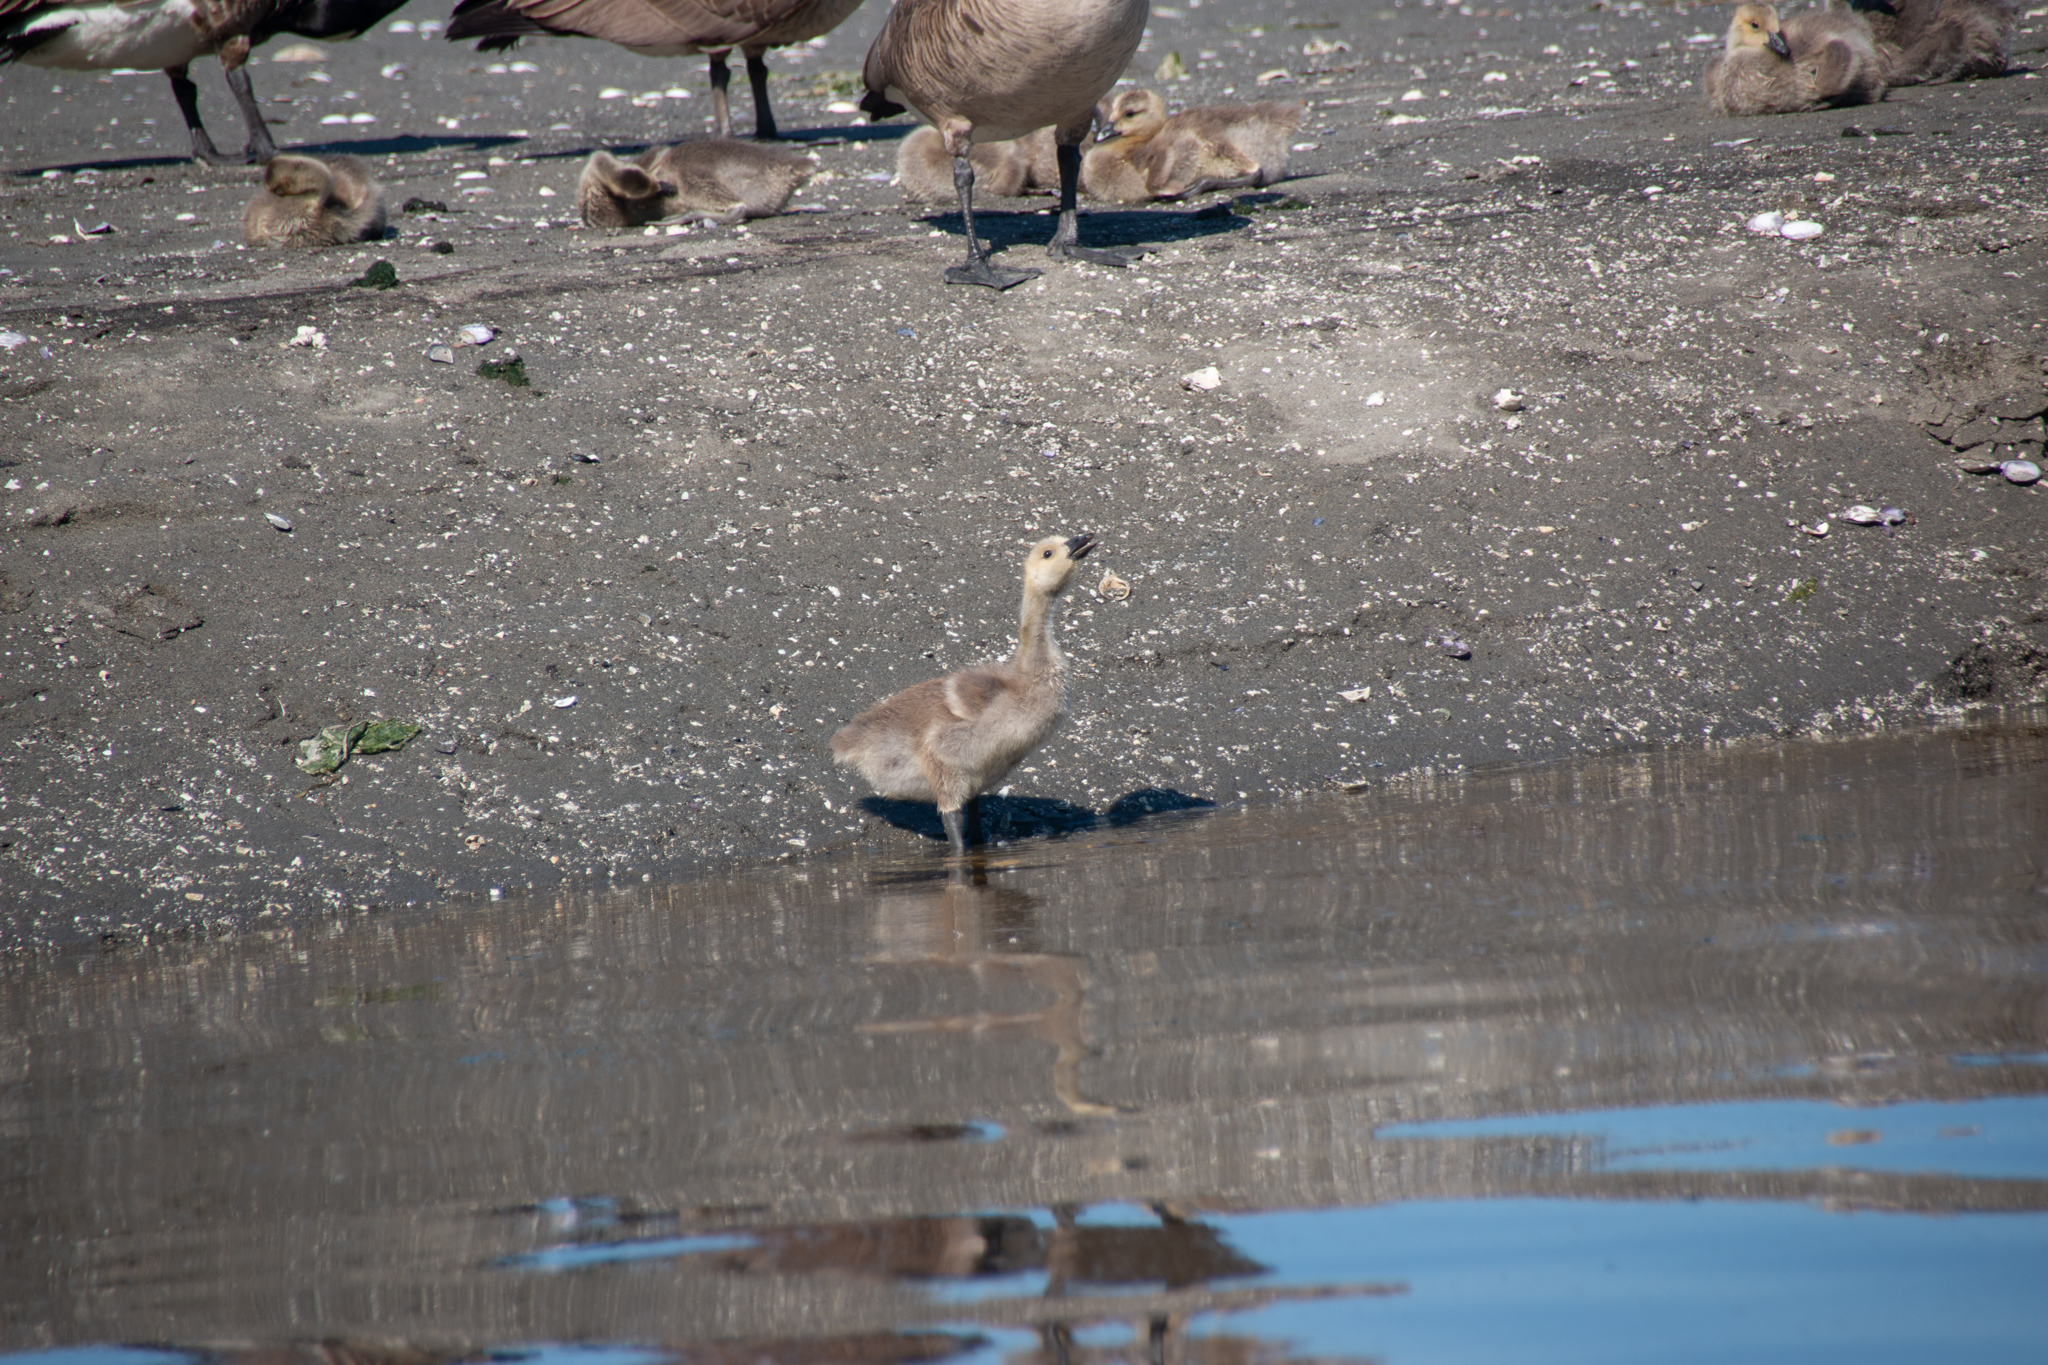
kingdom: Animalia
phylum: Chordata
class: Aves
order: Anseriformes
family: Anatidae
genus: Branta
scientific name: Branta canadensis
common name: Canada goose
